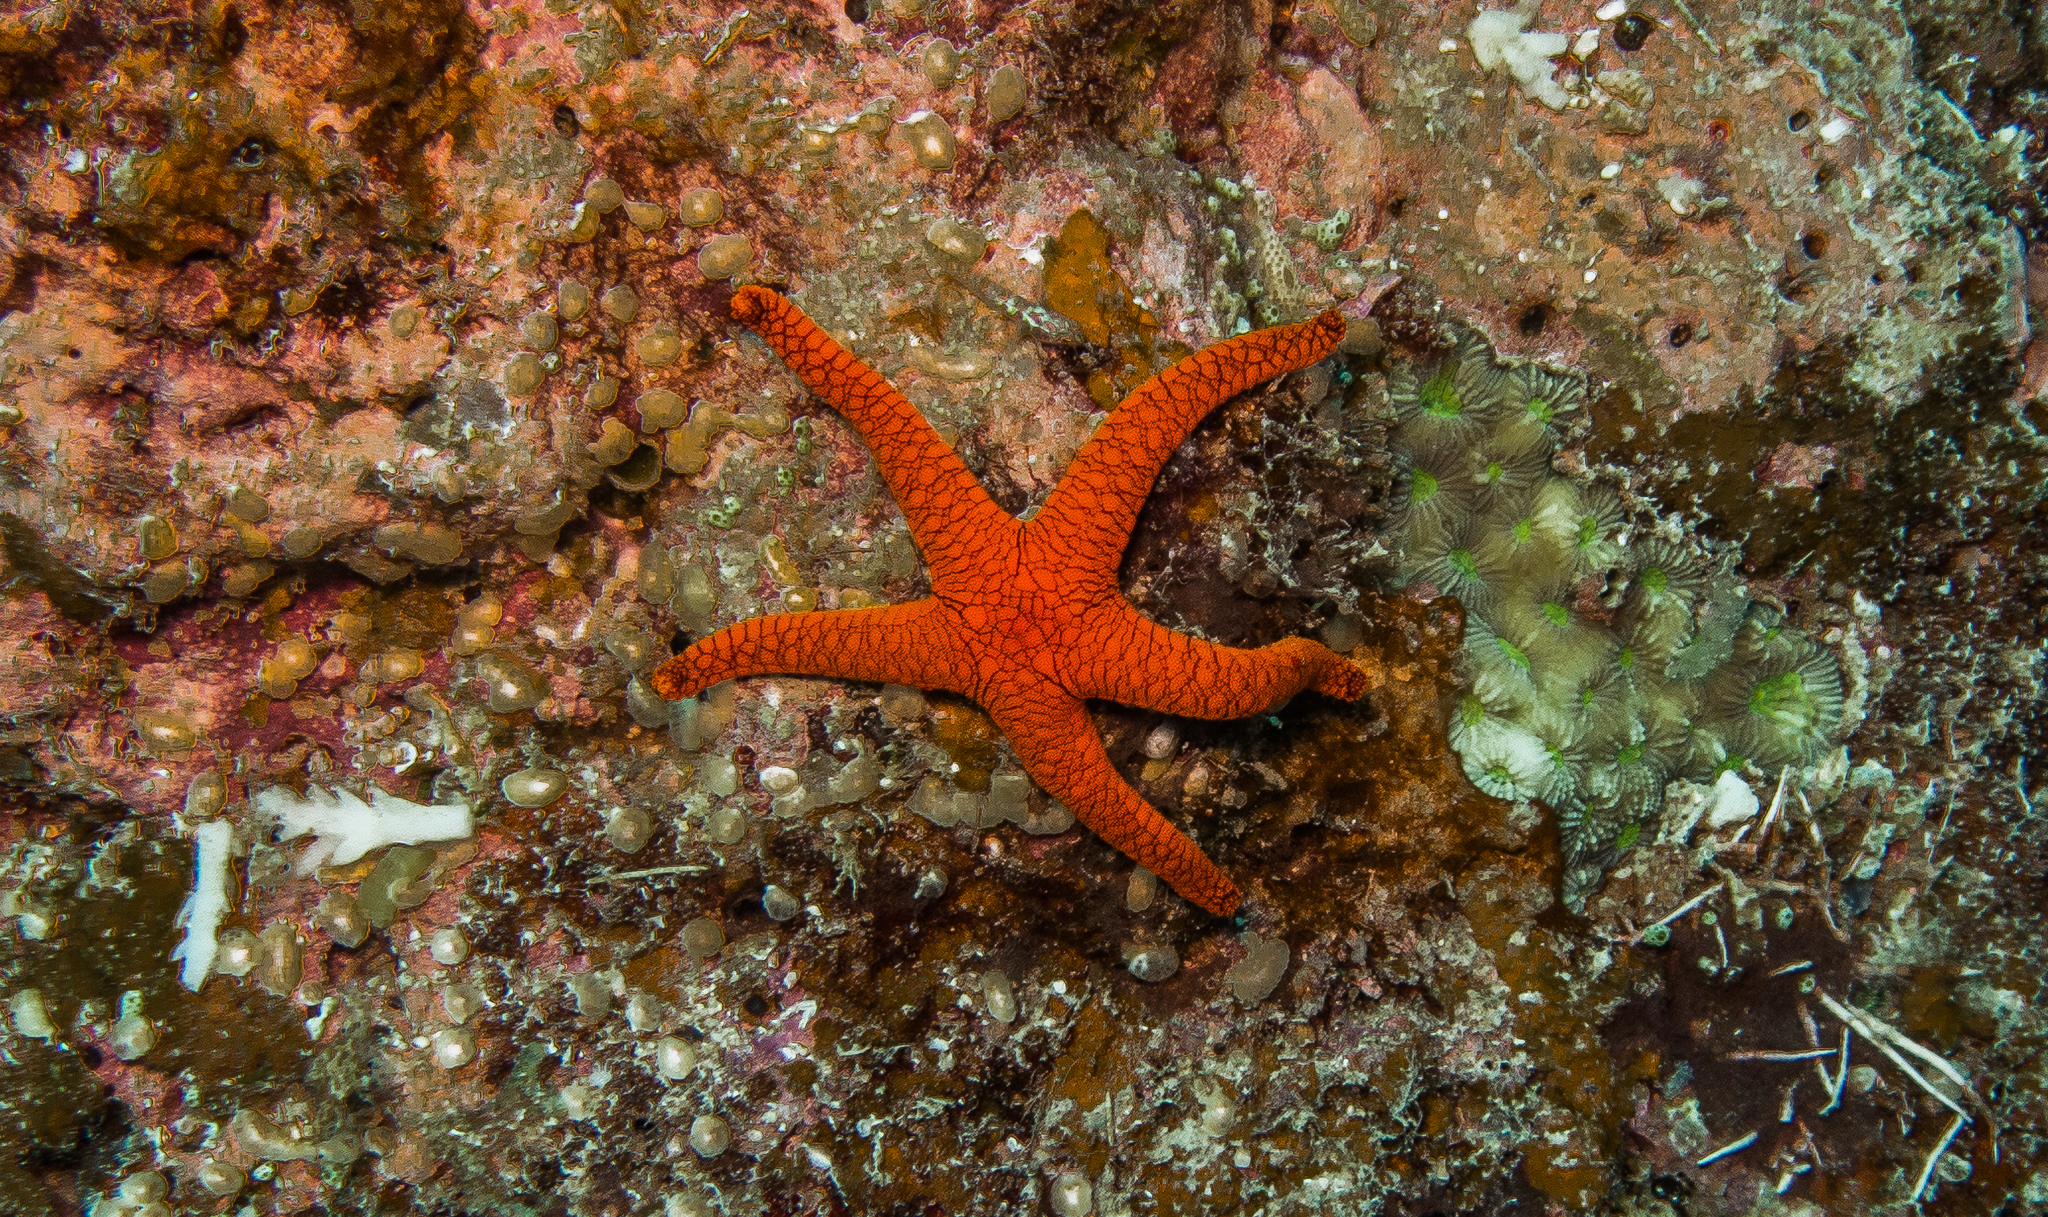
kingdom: Animalia
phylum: Echinodermata
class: Asteroidea
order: Valvatida
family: Goniasteridae
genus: Fromia
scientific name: Fromia indica
